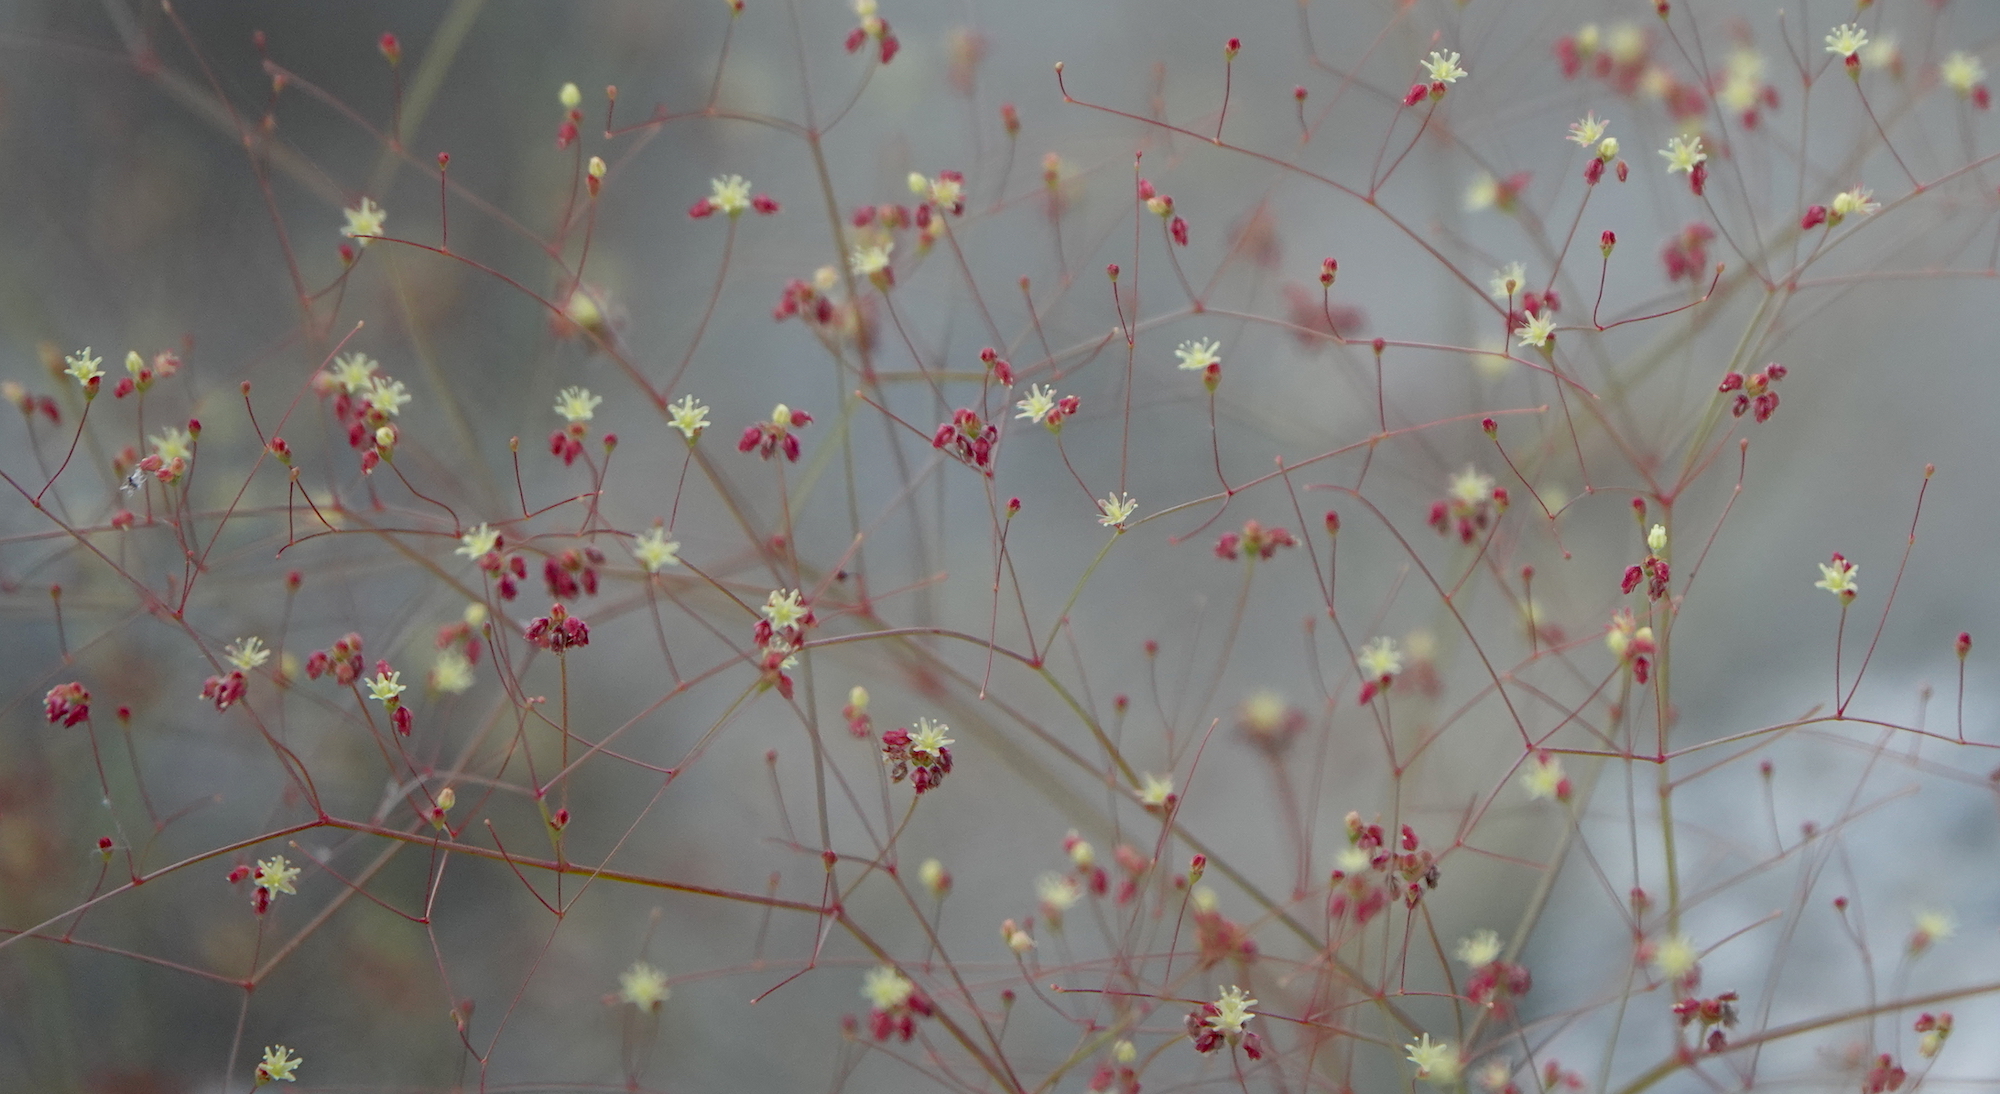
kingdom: Plantae
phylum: Tracheophyta
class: Magnoliopsida
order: Caryophyllales
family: Polygonaceae
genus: Eriogonum
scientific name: Eriogonum thomasii
